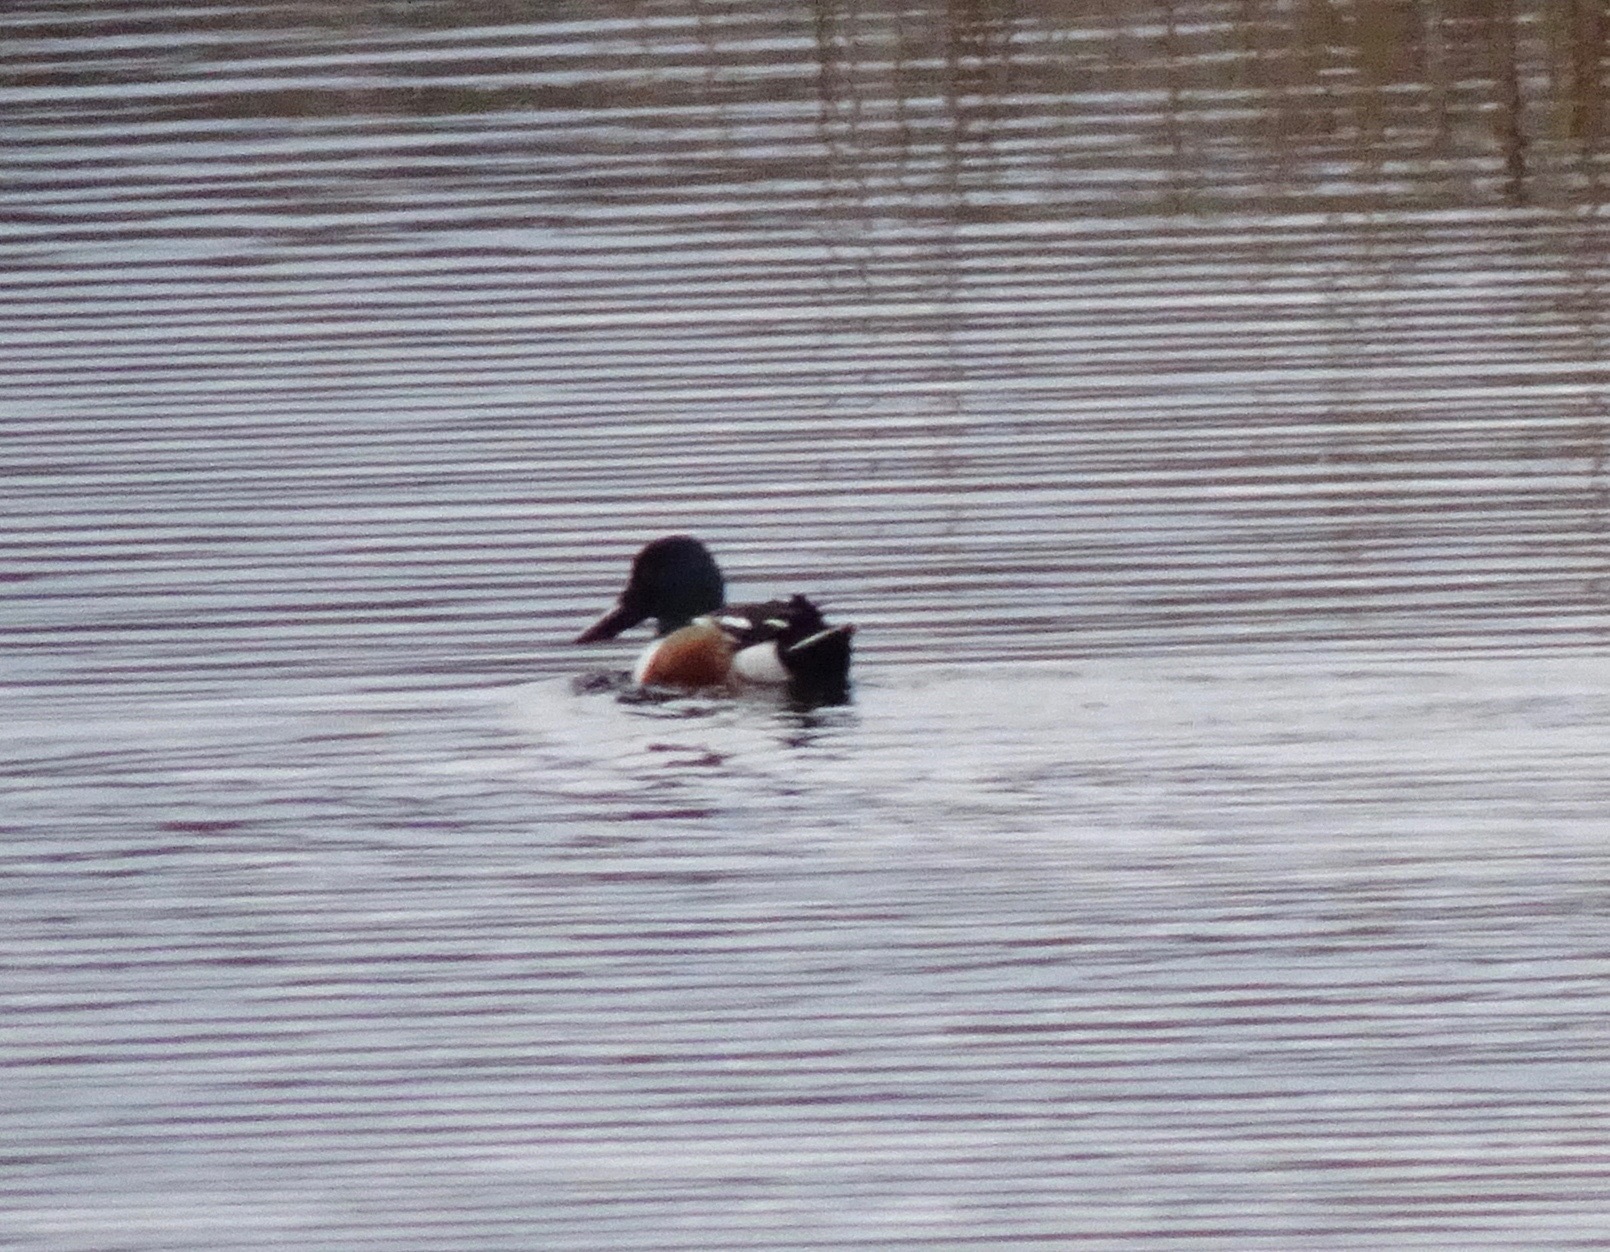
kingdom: Animalia
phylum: Chordata
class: Aves
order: Anseriformes
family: Anatidae
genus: Spatula
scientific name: Spatula clypeata
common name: Northern shoveler
